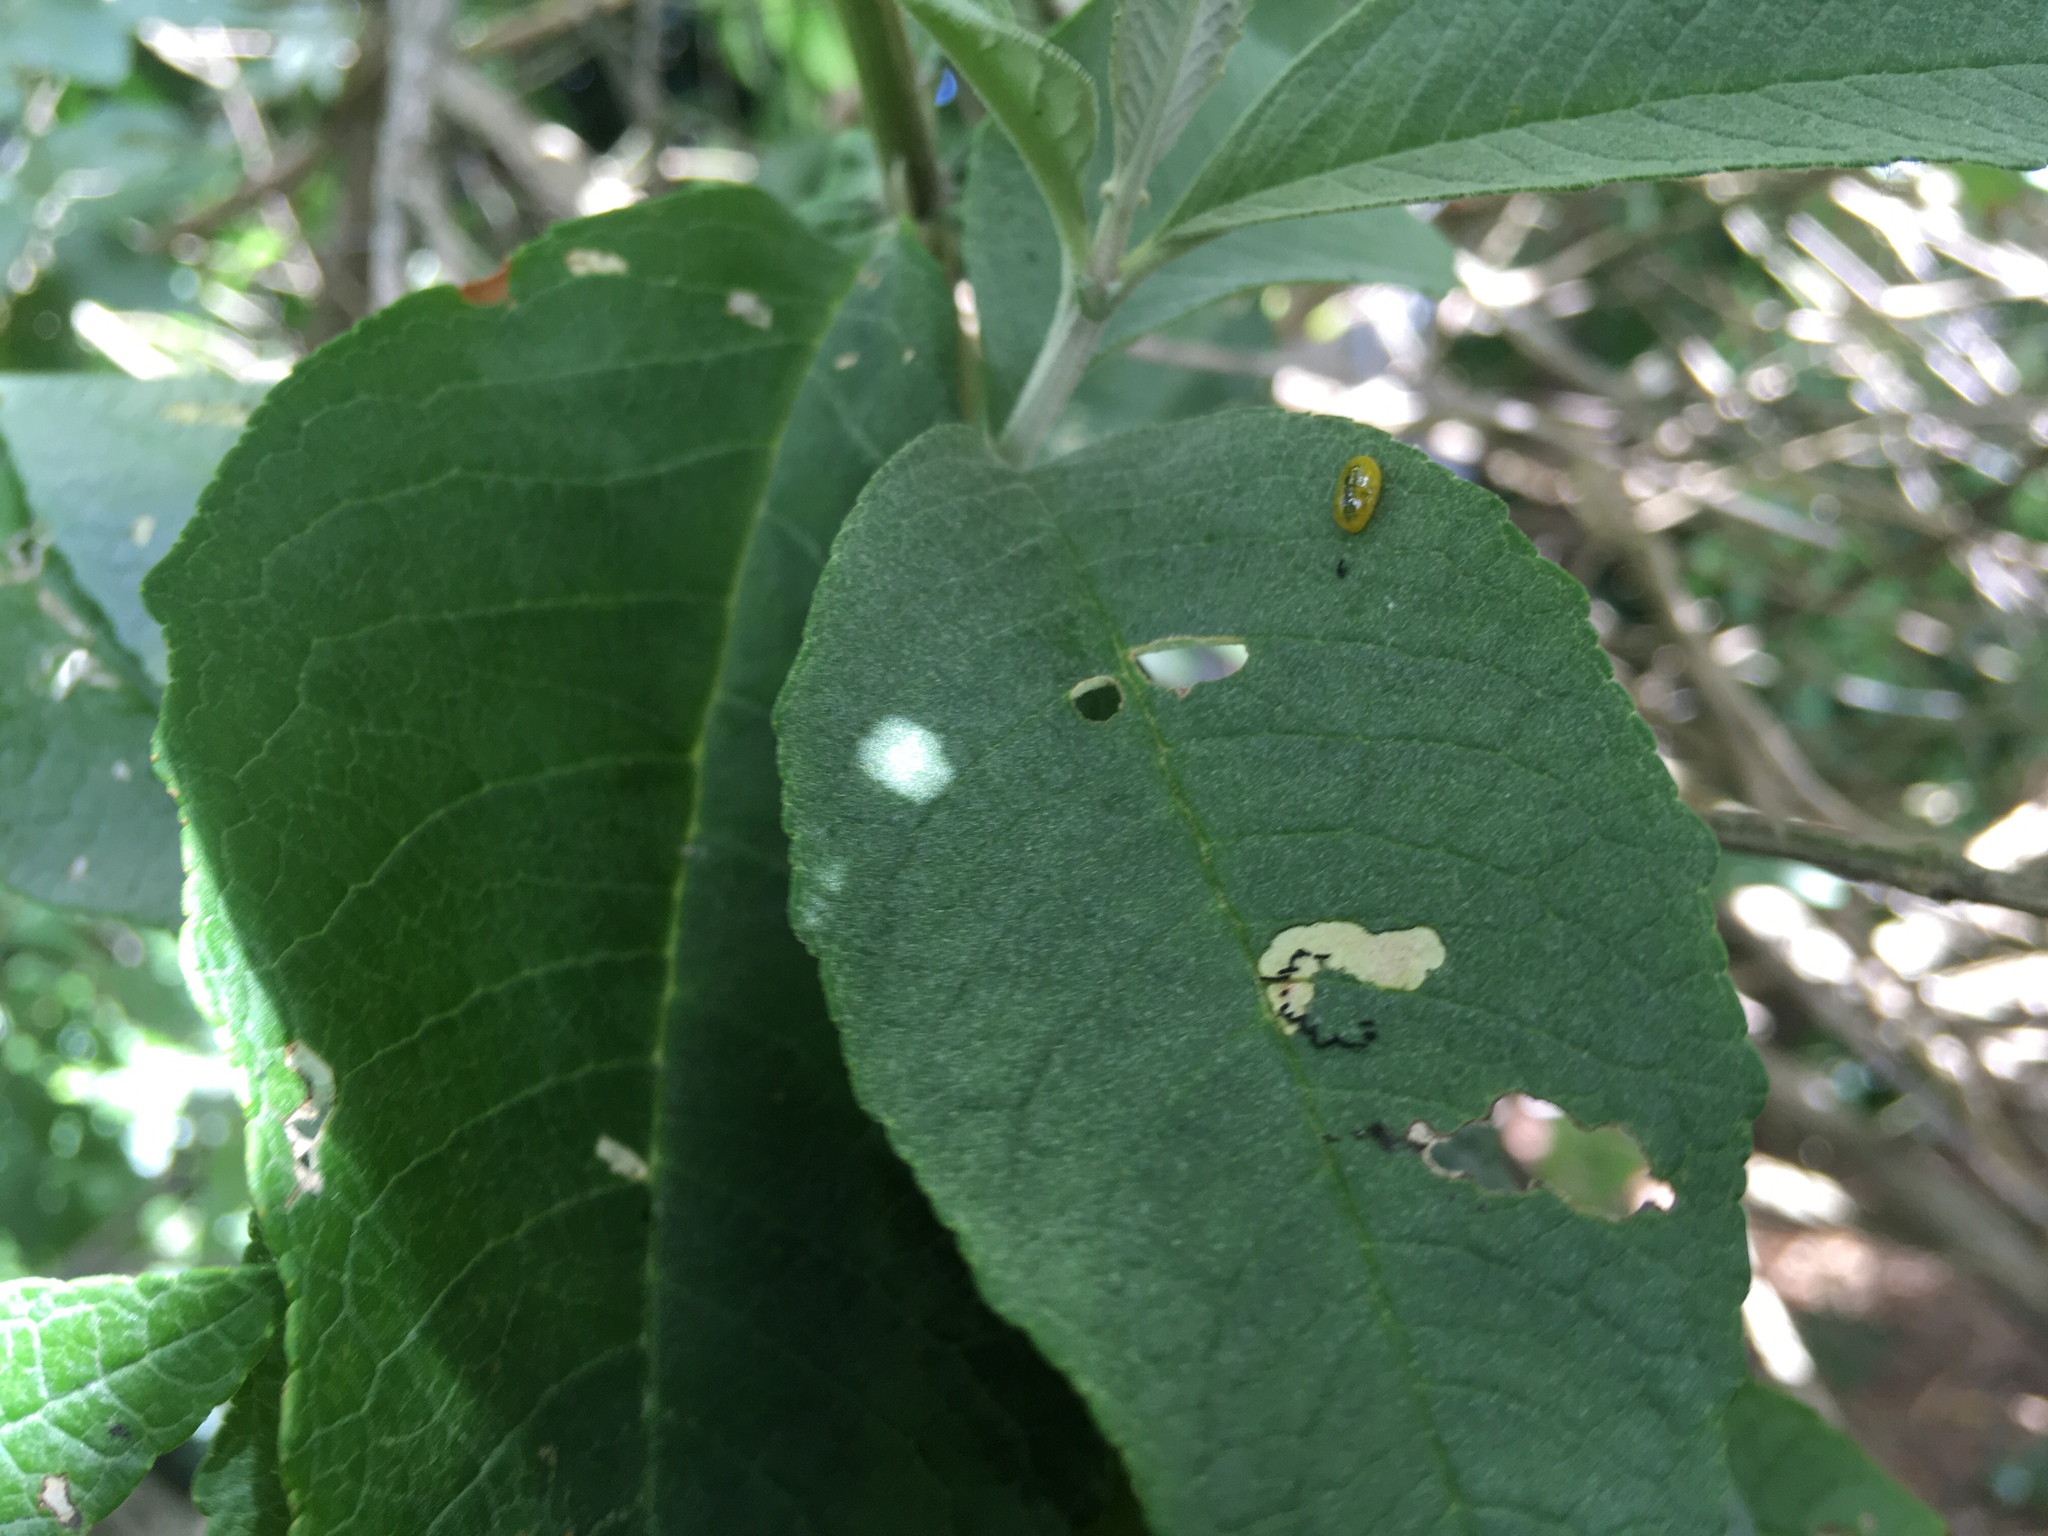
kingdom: Animalia
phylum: Arthropoda
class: Insecta
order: Coleoptera
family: Curculionidae
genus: Cleopus
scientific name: Cleopus japonicus
